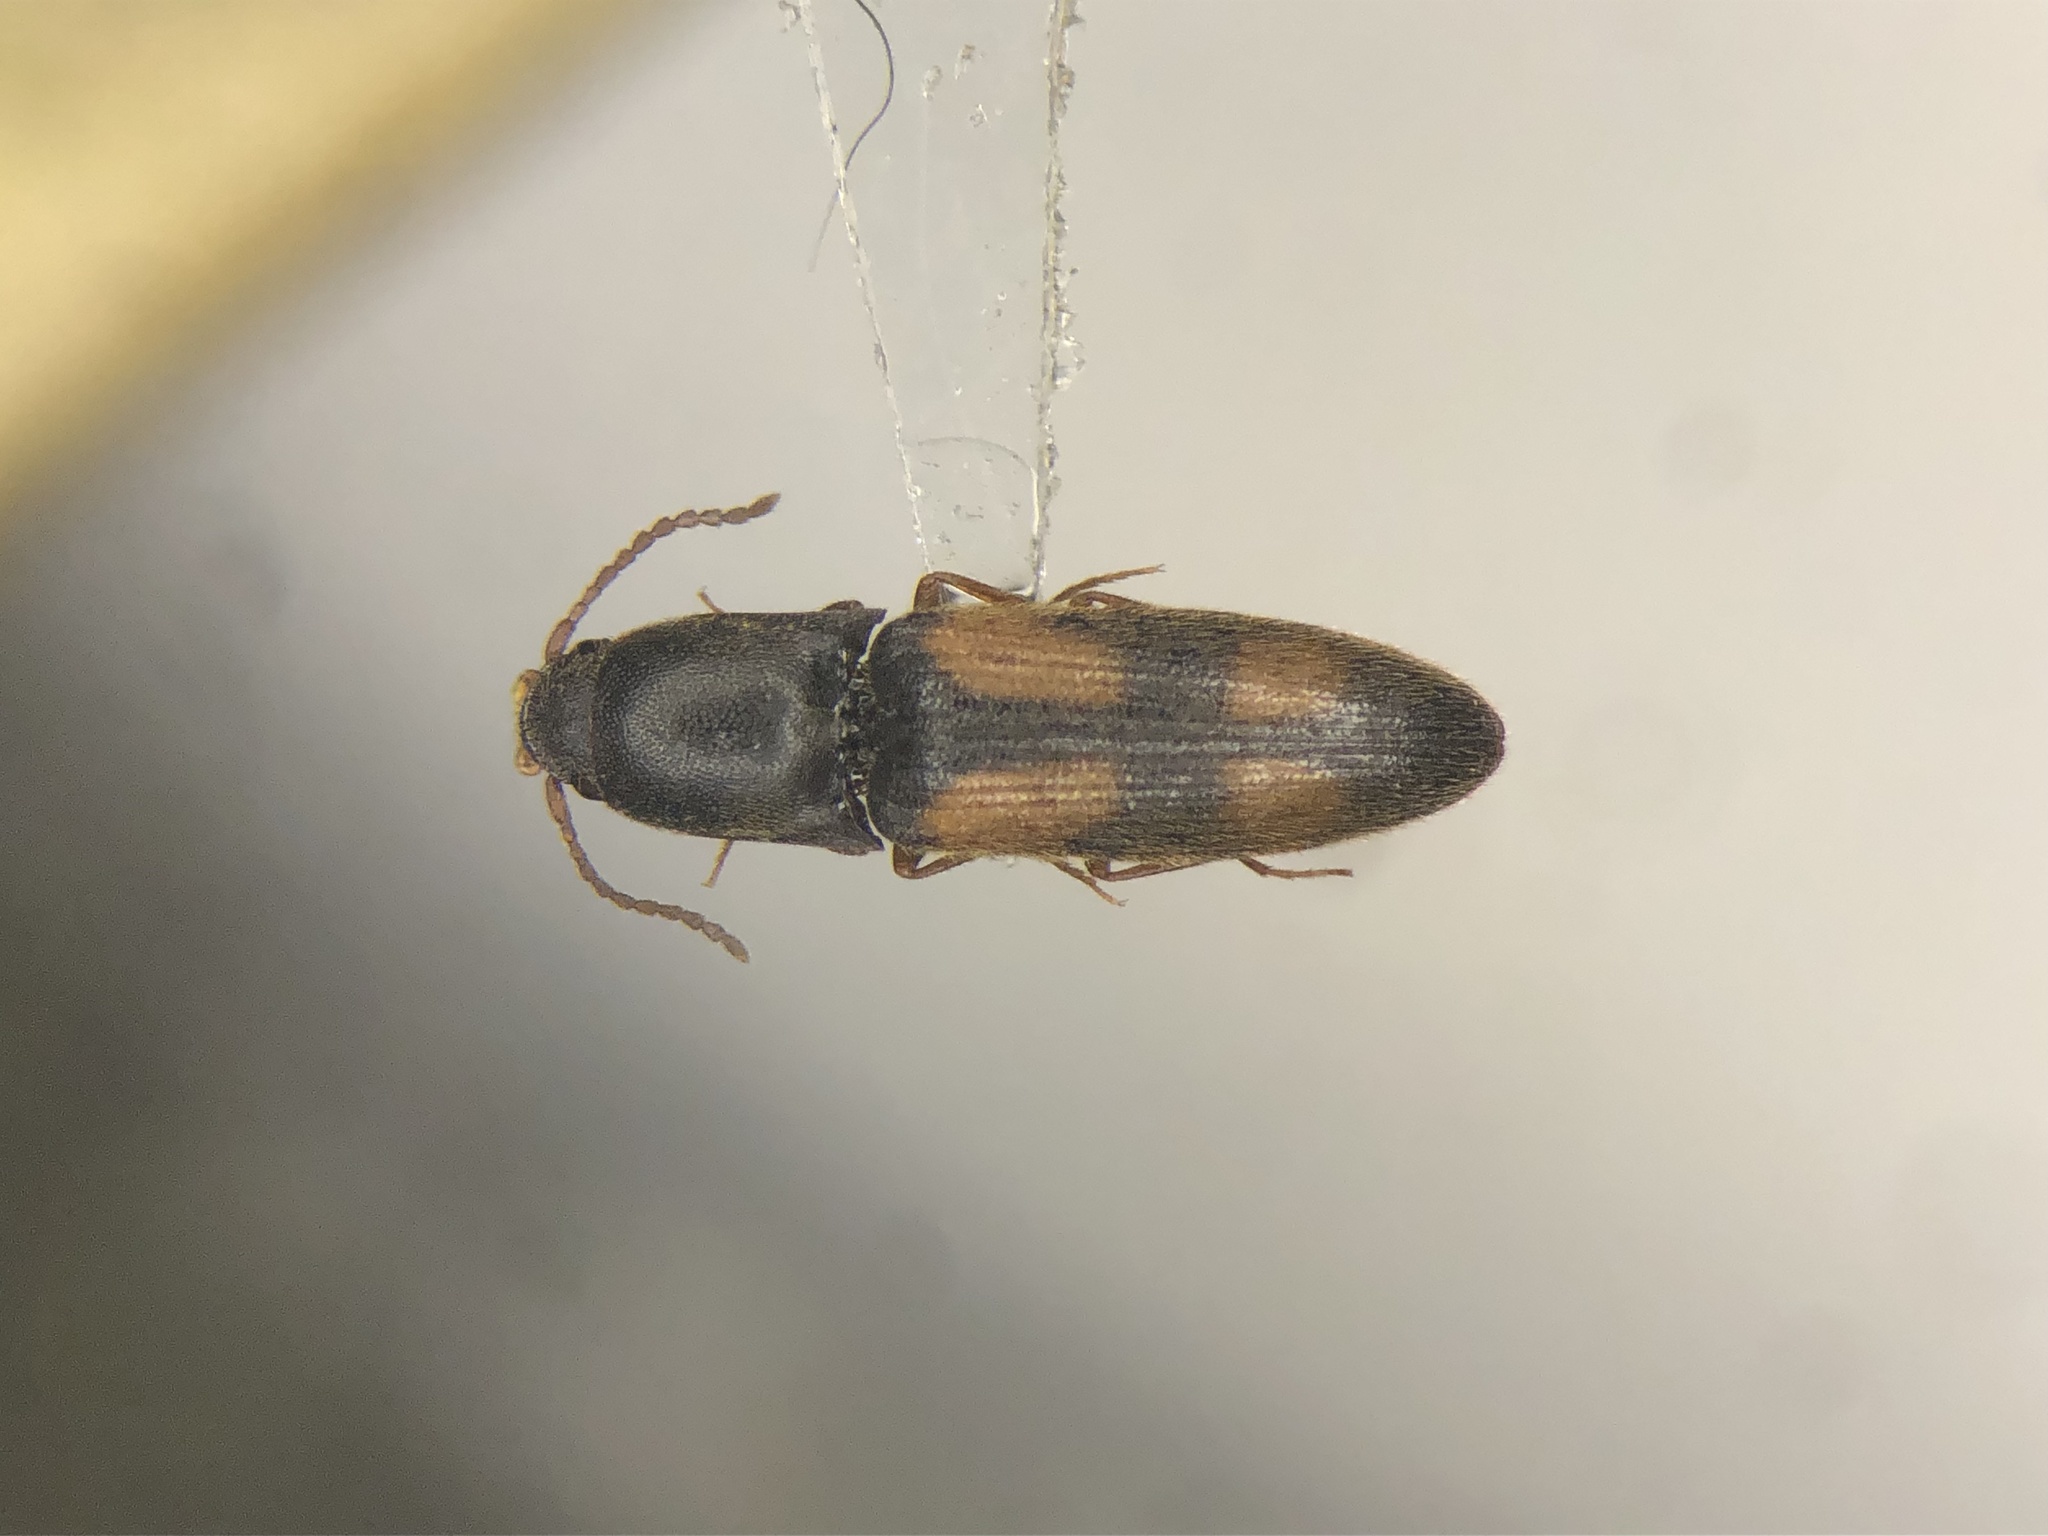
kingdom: Animalia
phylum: Arthropoda
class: Insecta
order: Coleoptera
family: Elateridae
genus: Idolus
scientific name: Idolus bigeminatus
